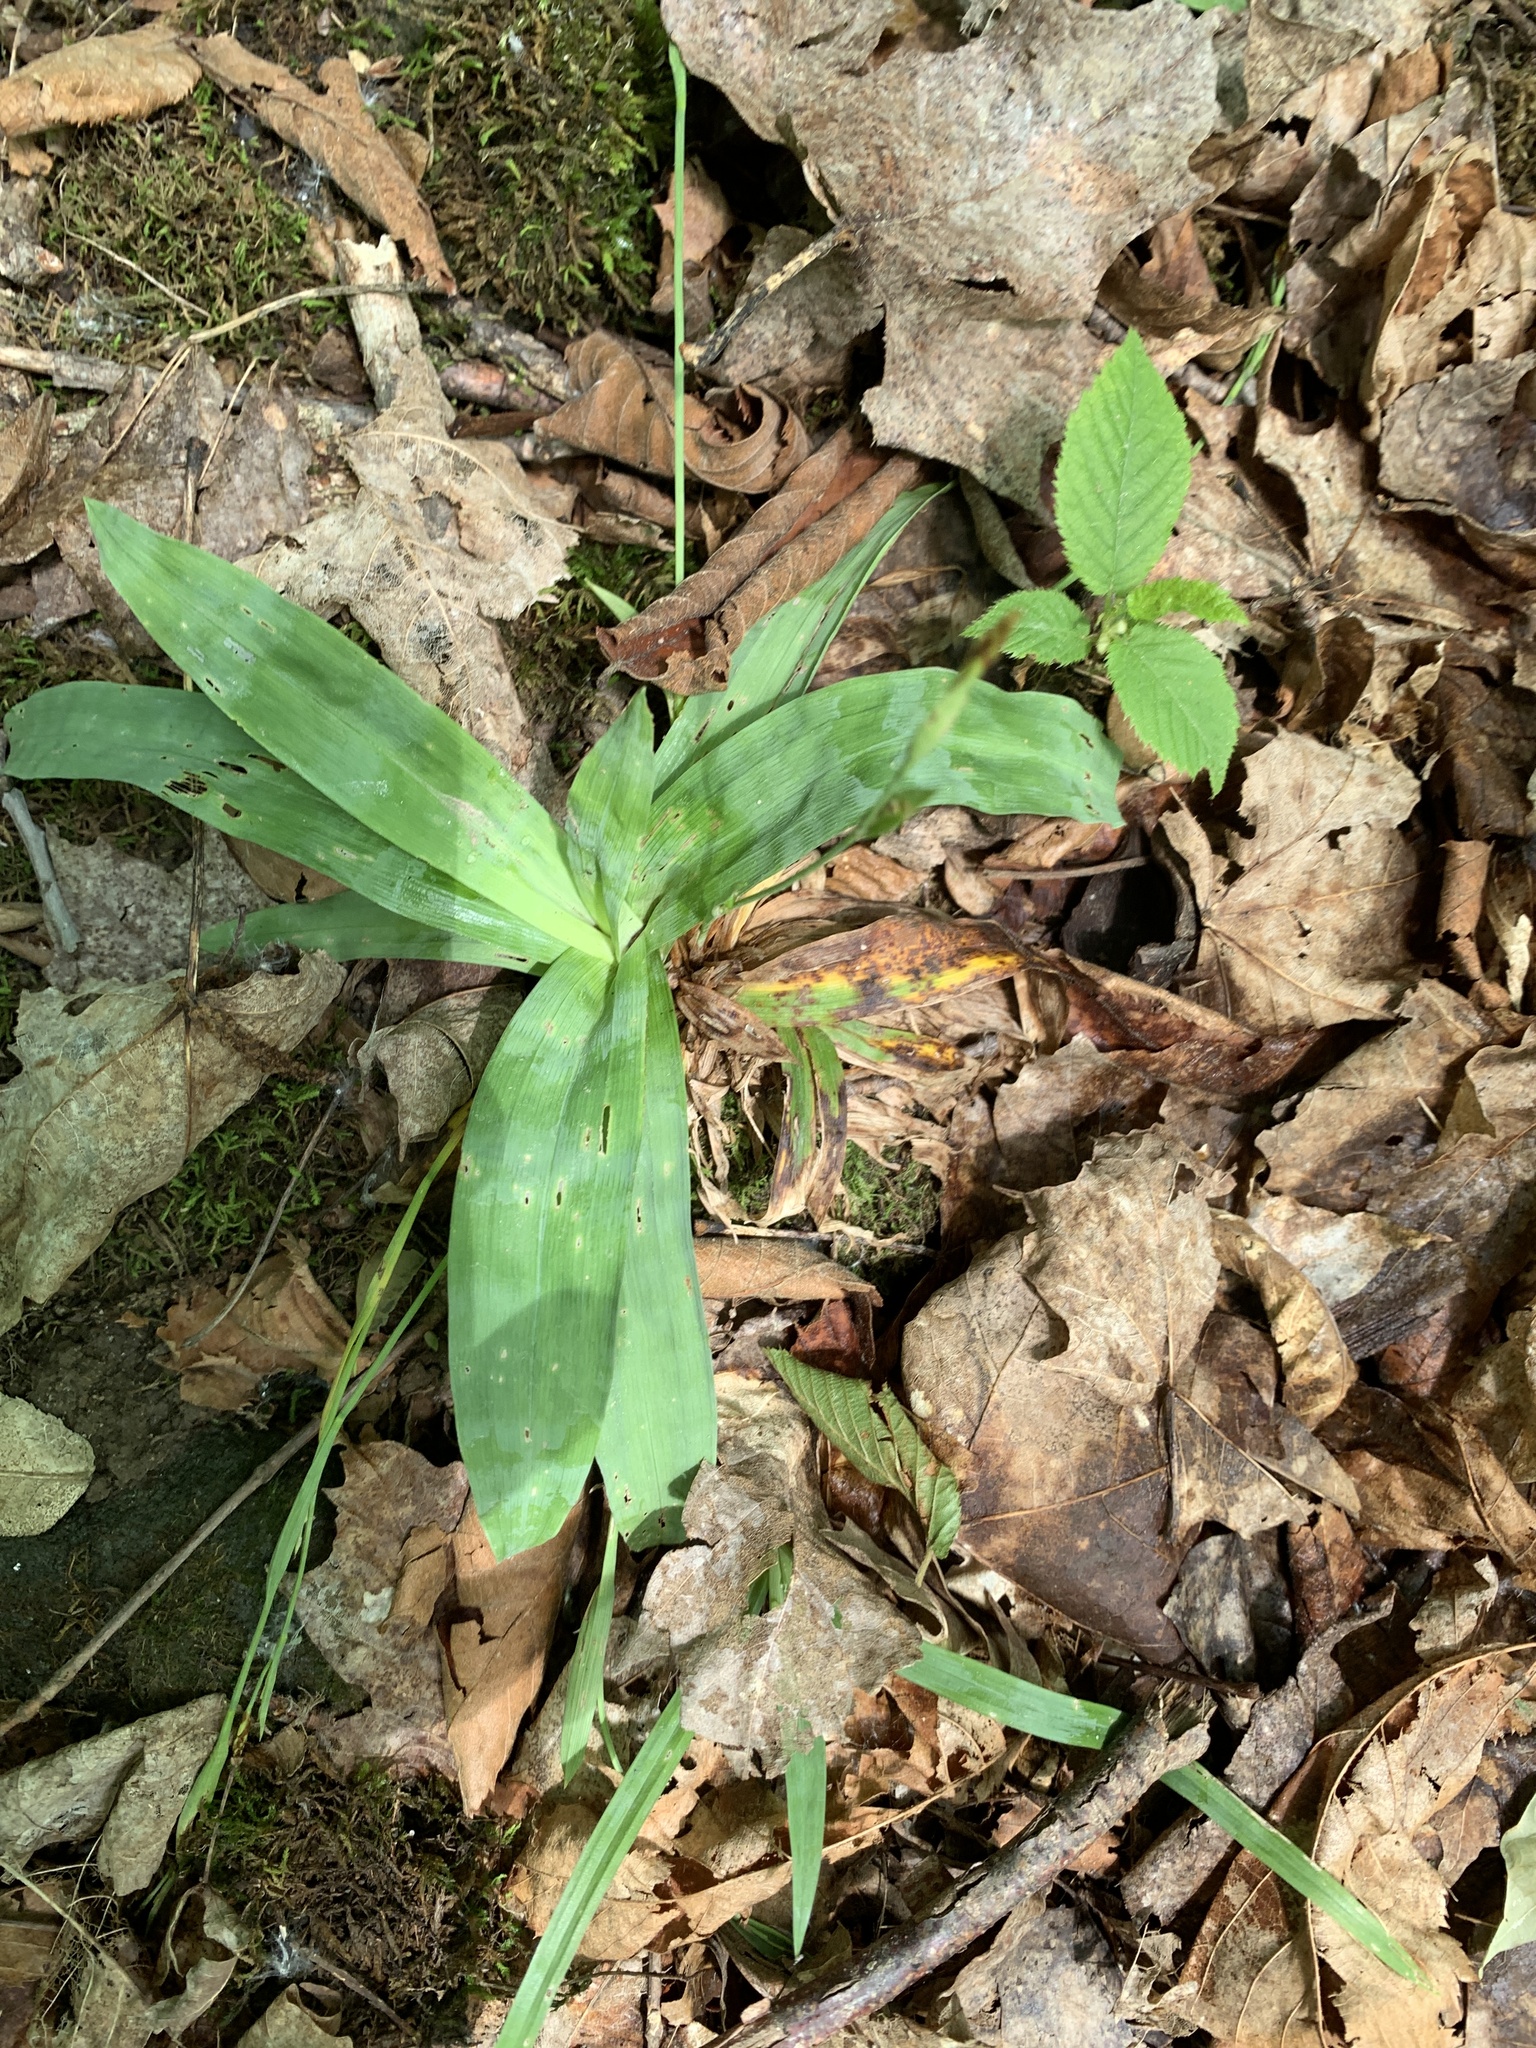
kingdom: Plantae
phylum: Tracheophyta
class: Liliopsida
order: Poales
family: Cyperaceae
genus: Carex
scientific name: Carex platyphylla
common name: Broad-leaved sedge
